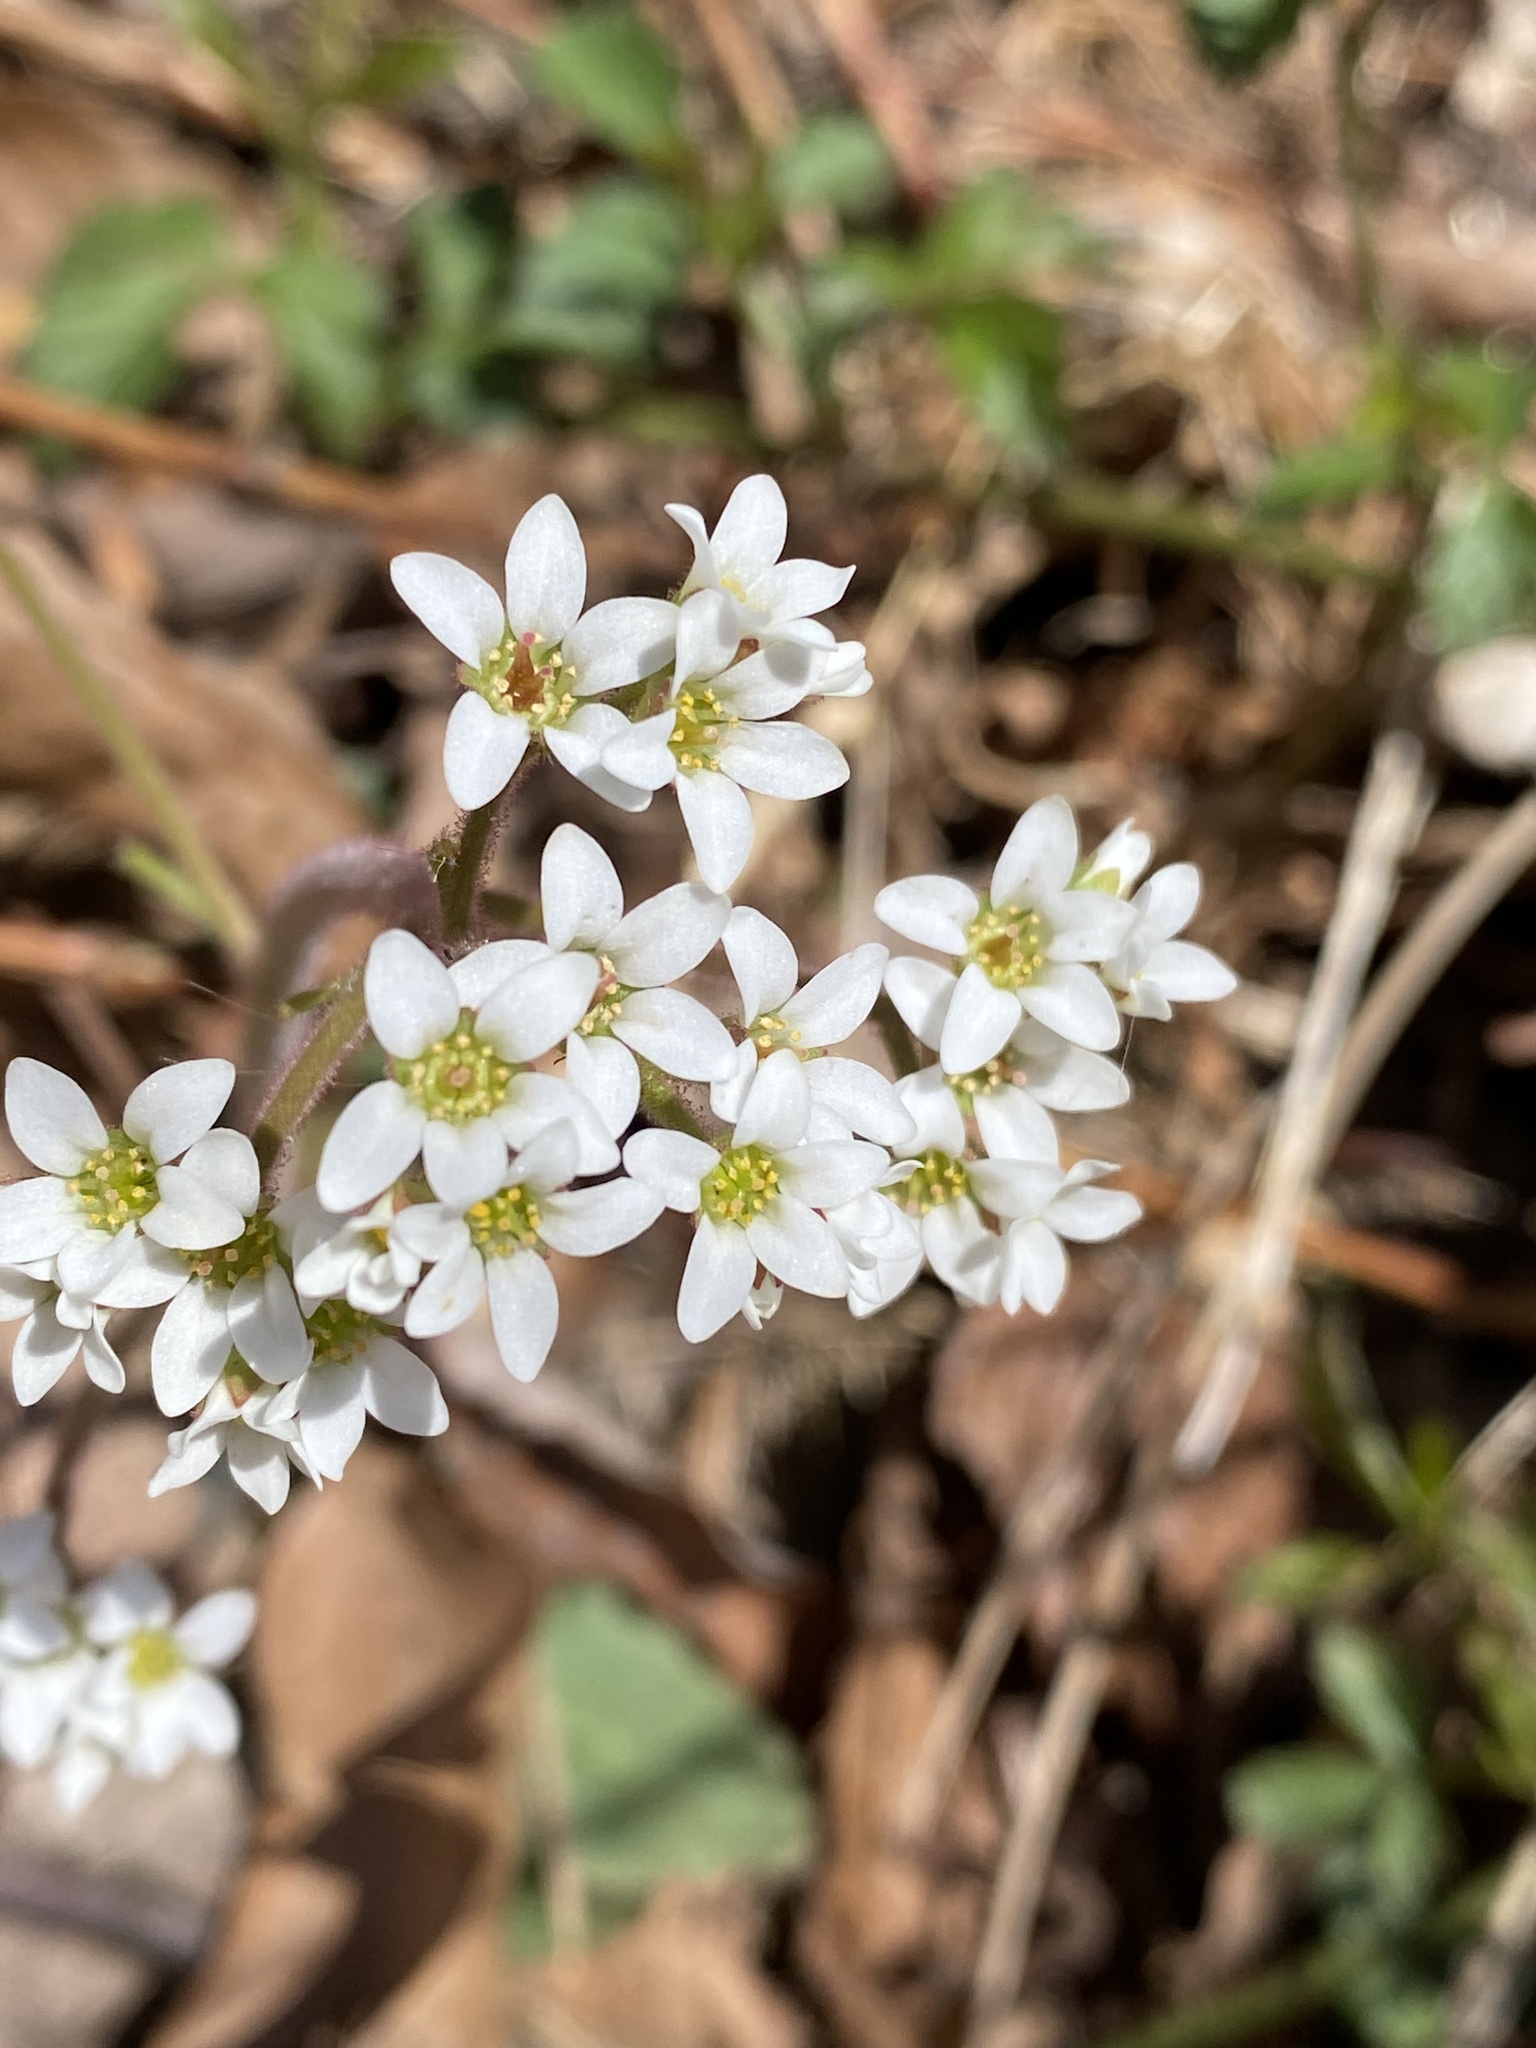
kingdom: Plantae
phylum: Tracheophyta
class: Magnoliopsida
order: Saxifragales
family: Saxifragaceae
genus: Micranthes
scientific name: Micranthes virginiensis
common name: Early saxifrage
